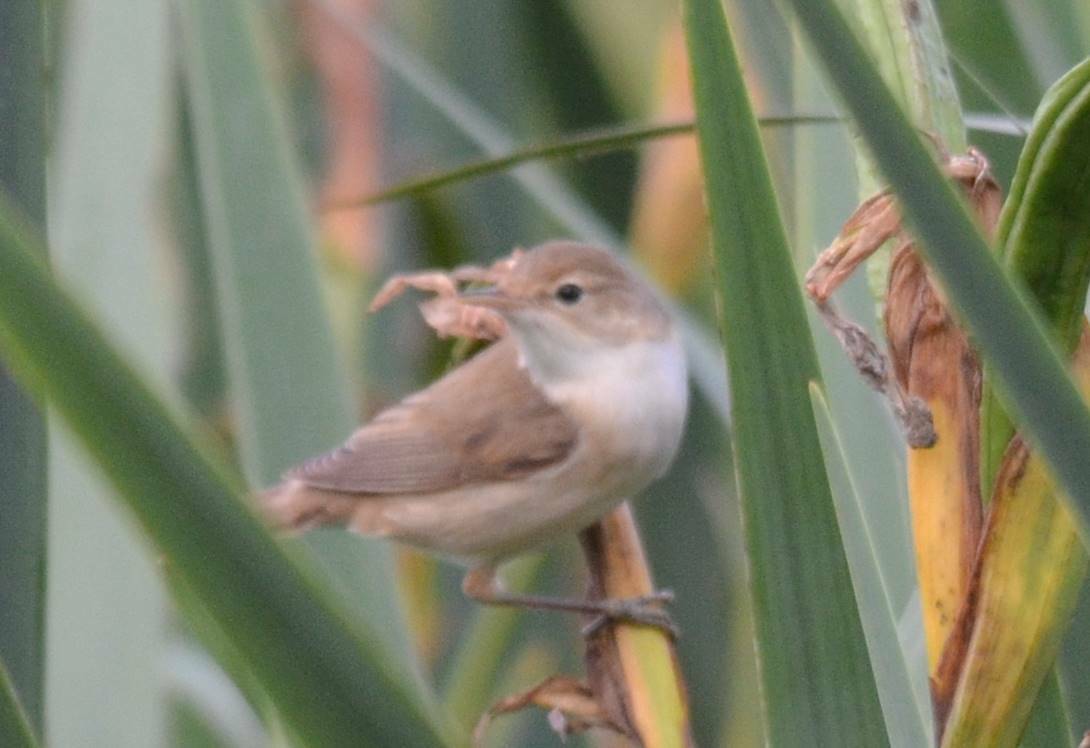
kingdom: Animalia
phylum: Chordata
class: Aves
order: Passeriformes
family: Acrocephalidae
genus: Acrocephalus
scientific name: Acrocephalus scirpaceus
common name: Eurasian reed warbler
